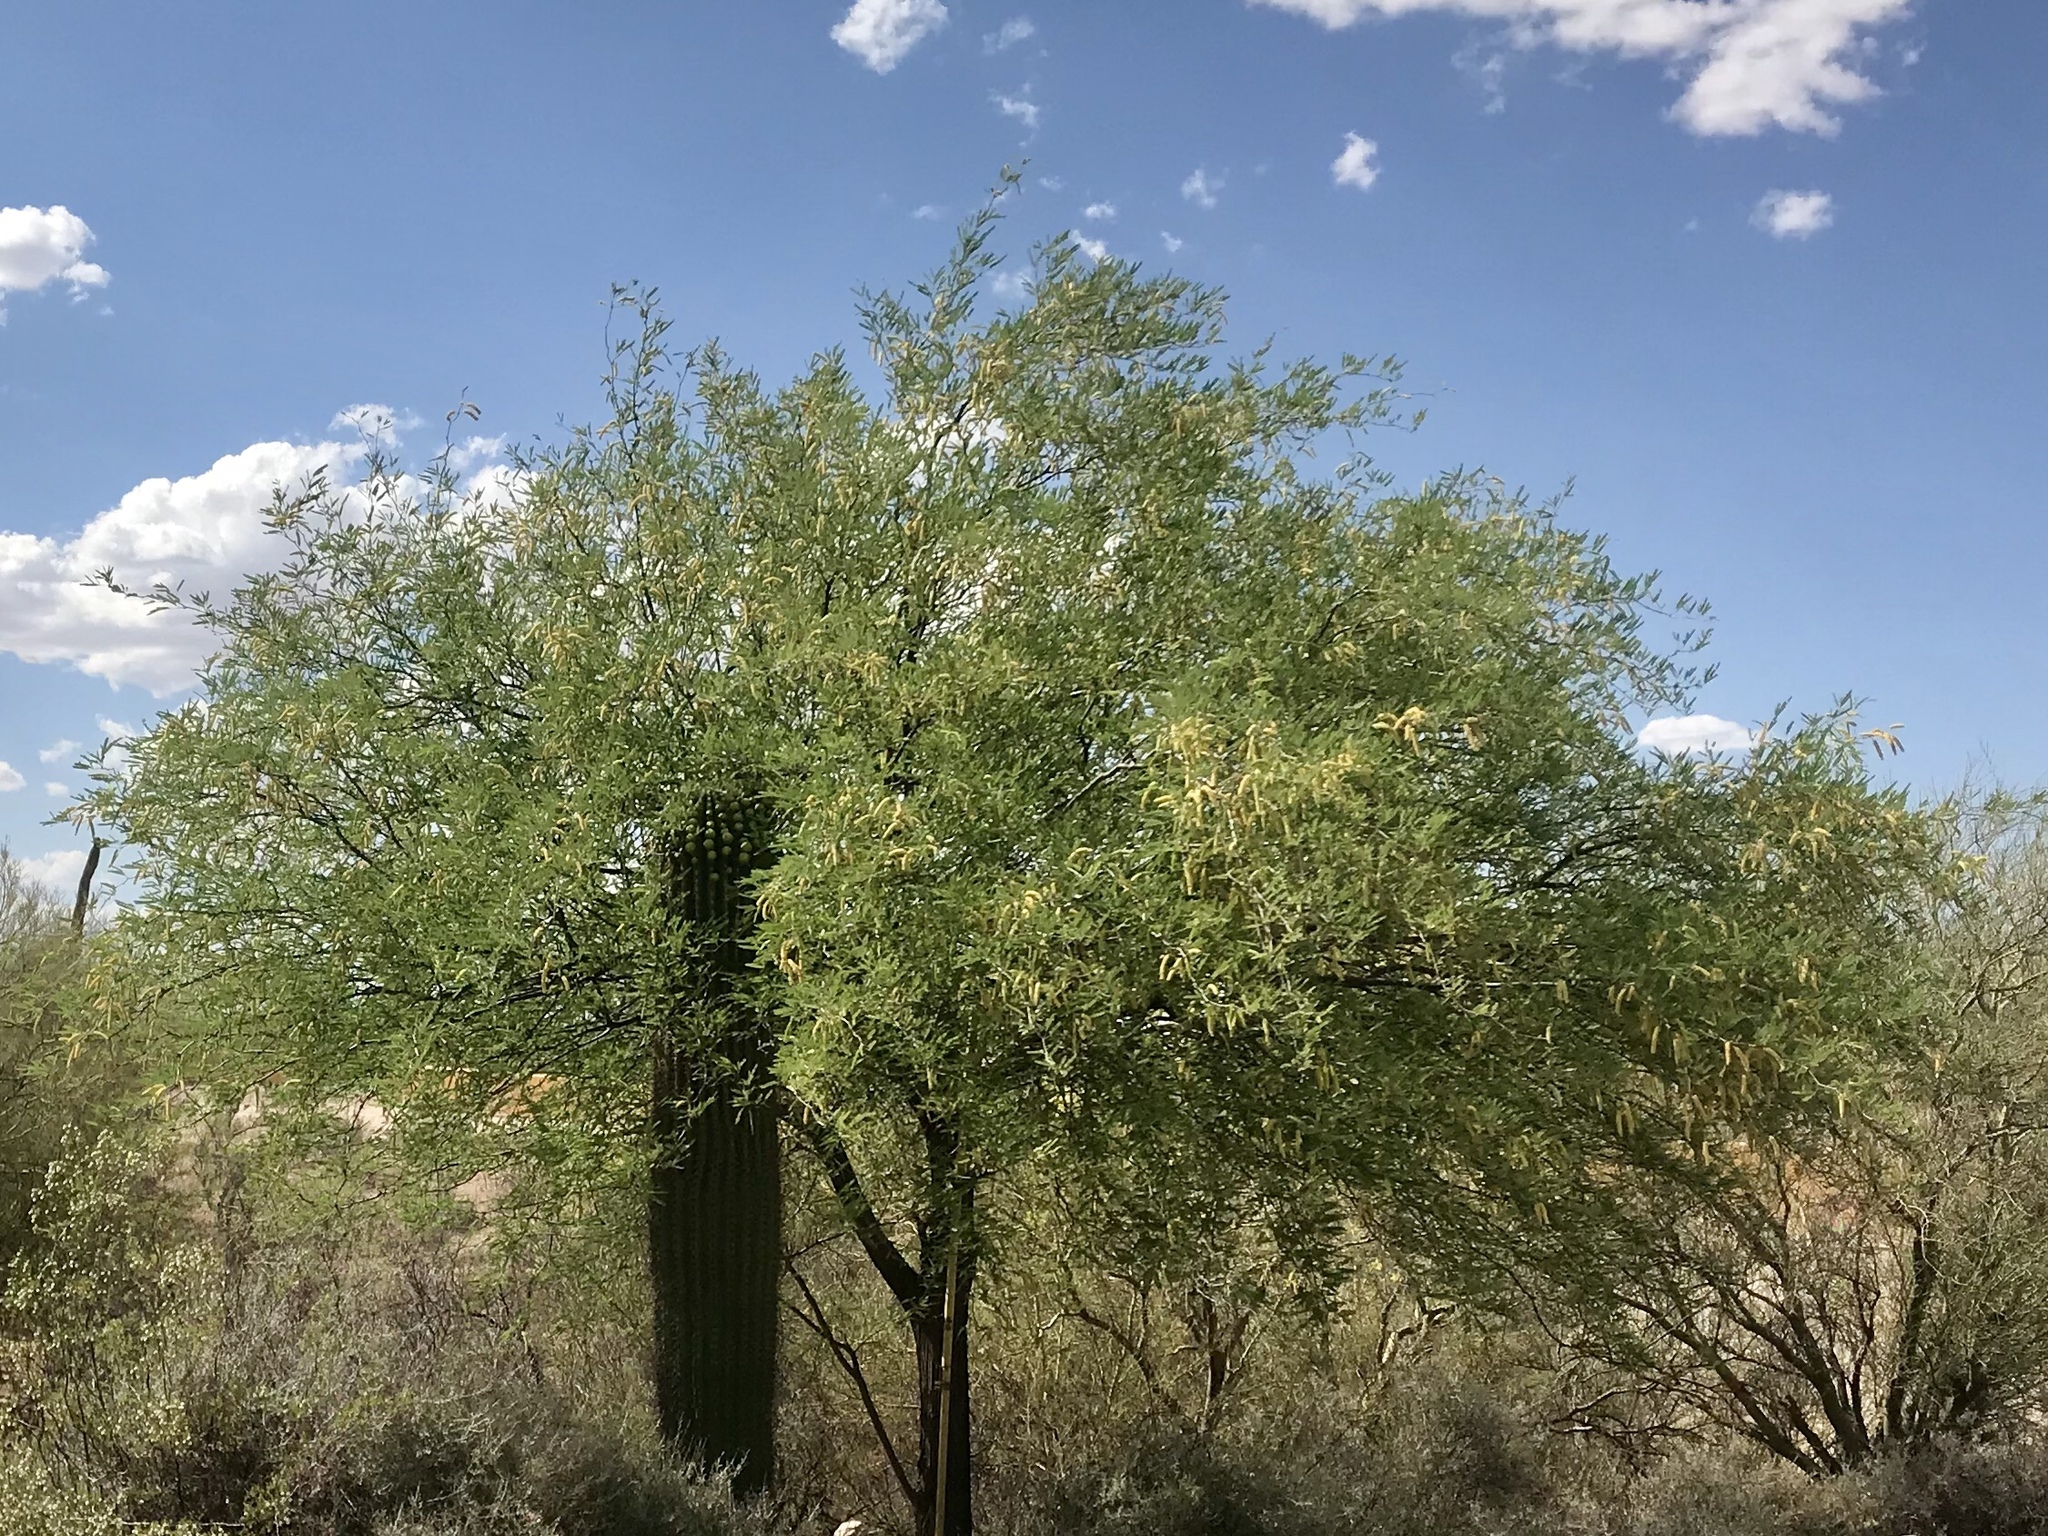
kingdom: Plantae
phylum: Tracheophyta
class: Magnoliopsida
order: Fabales
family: Fabaceae
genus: Prosopis
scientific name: Prosopis velutina
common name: Velvet mesquite
